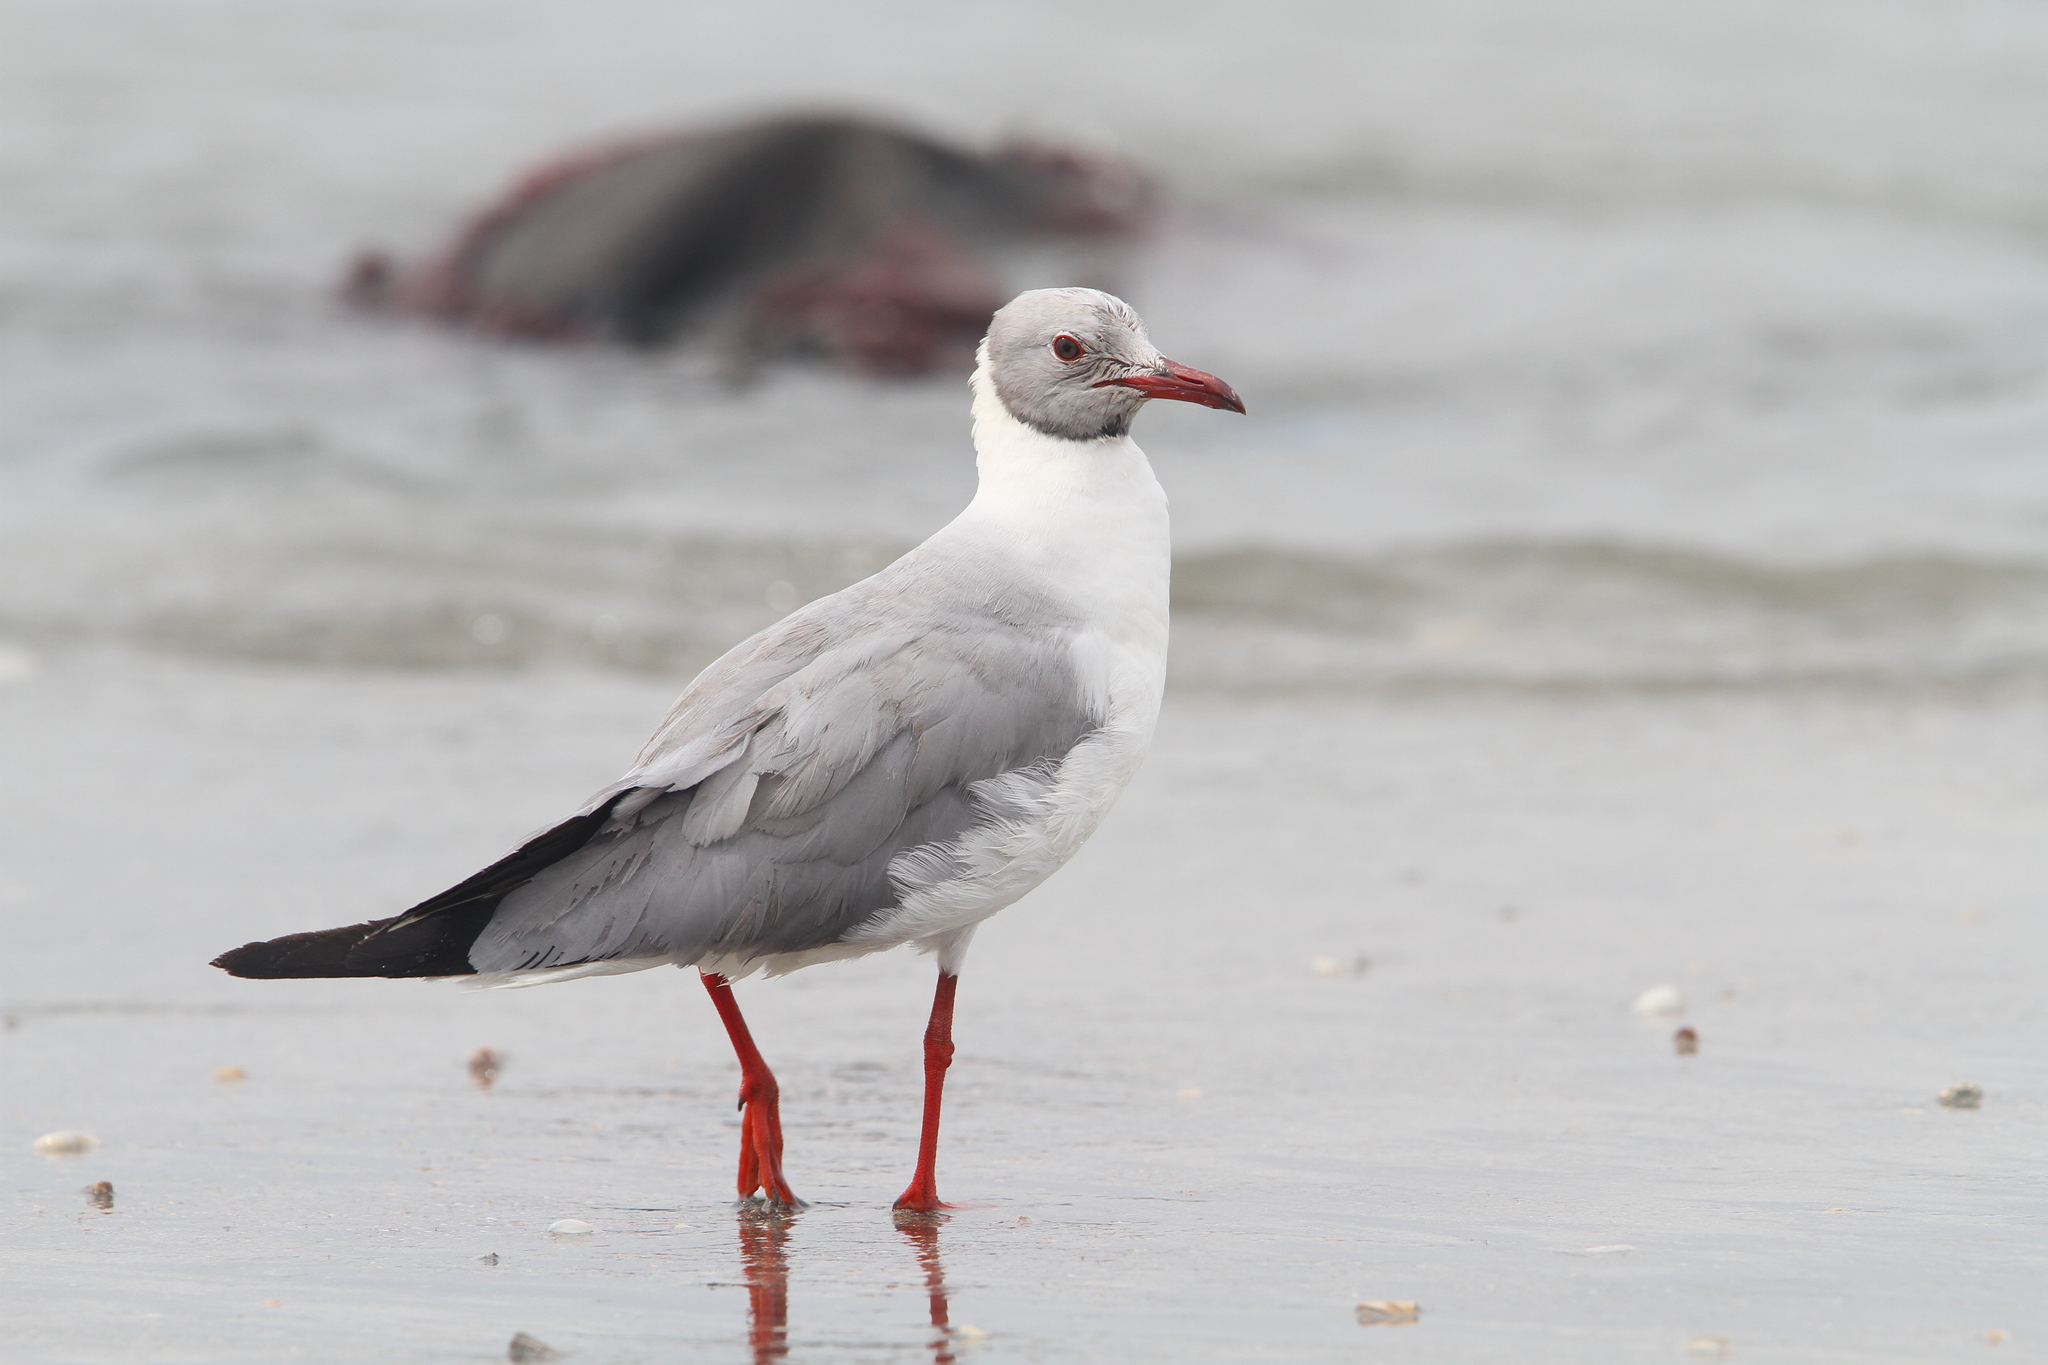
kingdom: Animalia
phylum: Chordata
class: Aves
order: Charadriiformes
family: Laridae
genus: Chroicocephalus
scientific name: Chroicocephalus cirrocephalus
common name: Grey-headed gull
